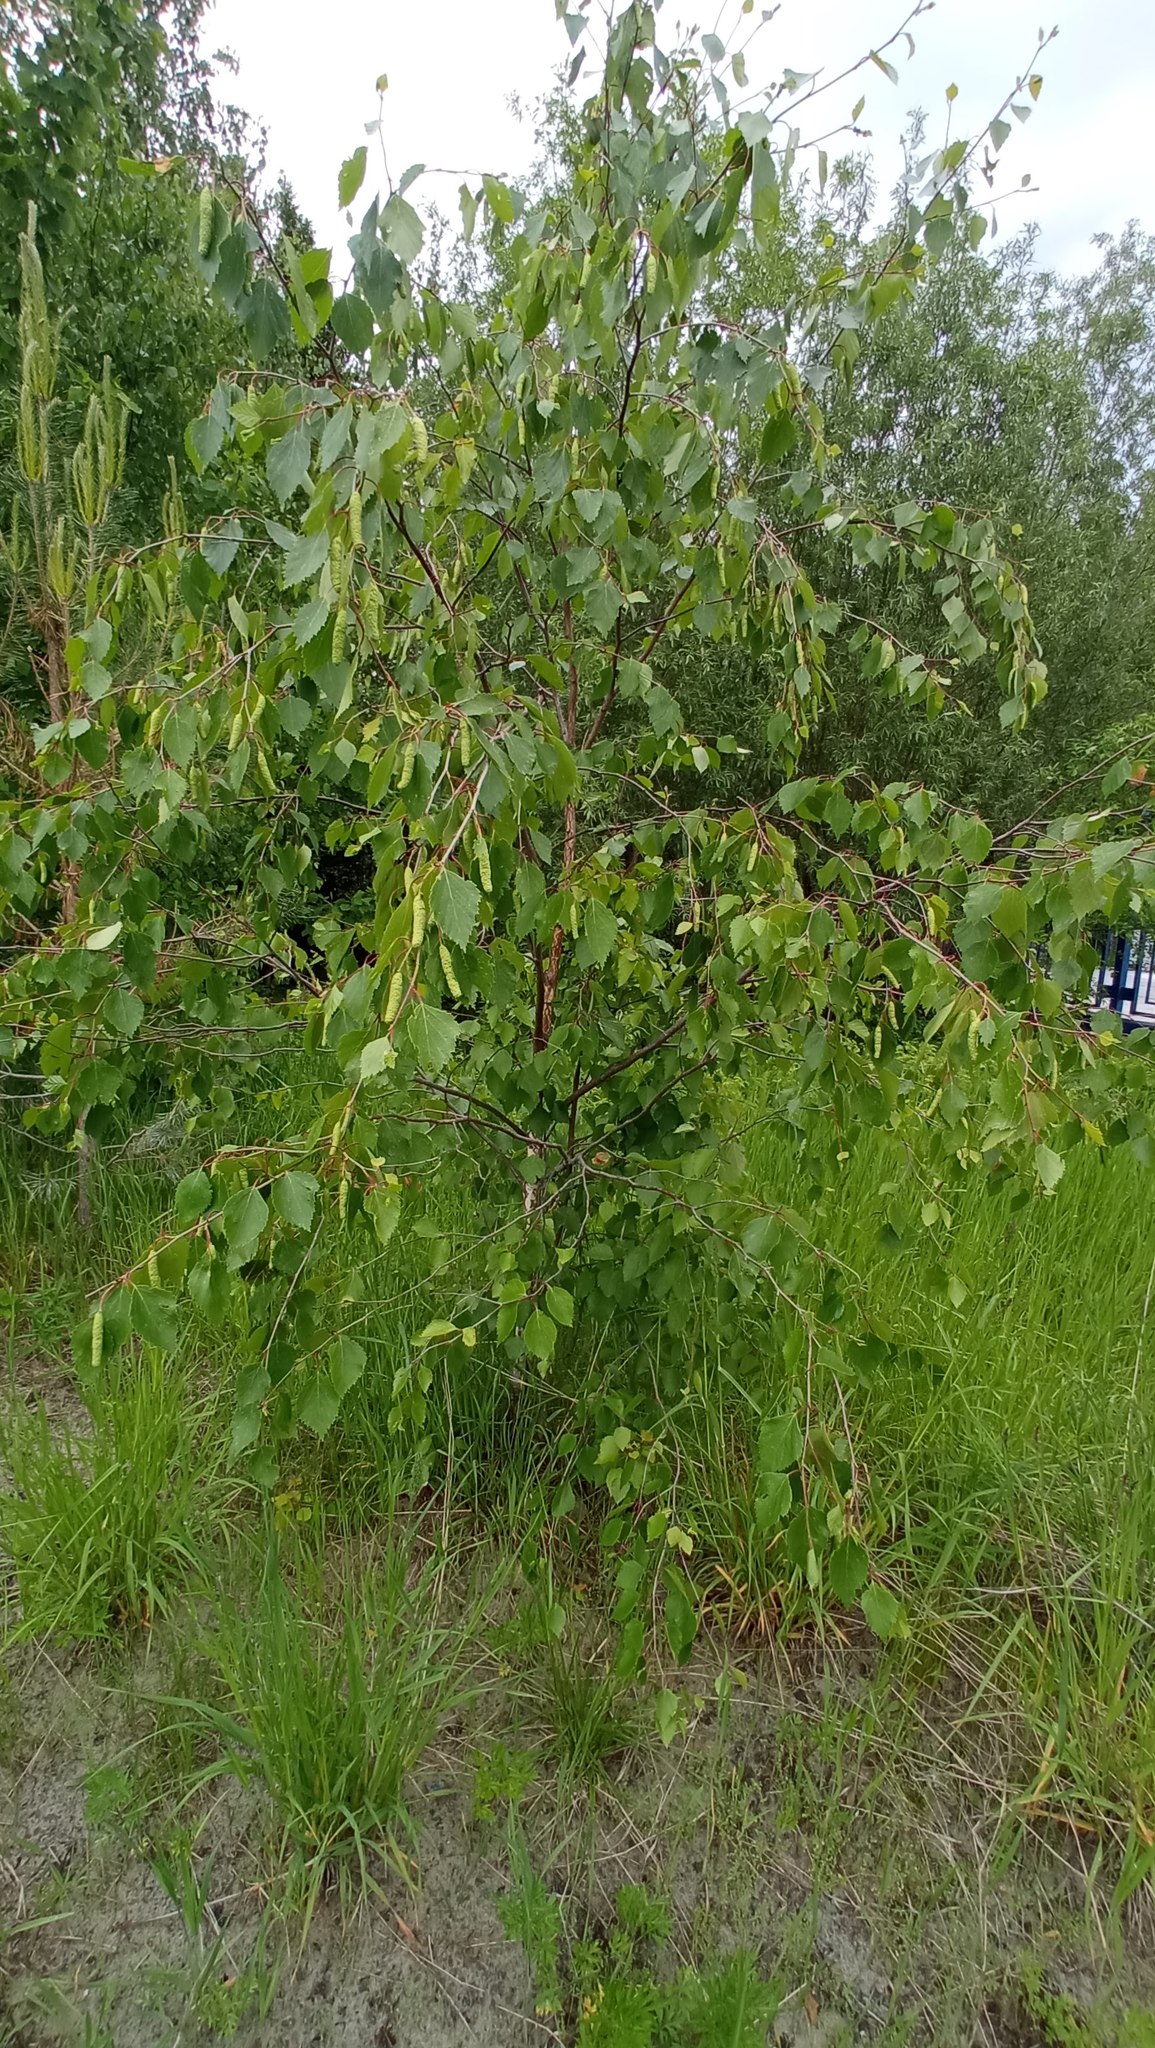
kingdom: Plantae
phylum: Tracheophyta
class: Magnoliopsida
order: Fagales
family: Betulaceae
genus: Betula
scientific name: Betula pendula
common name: Silver birch
